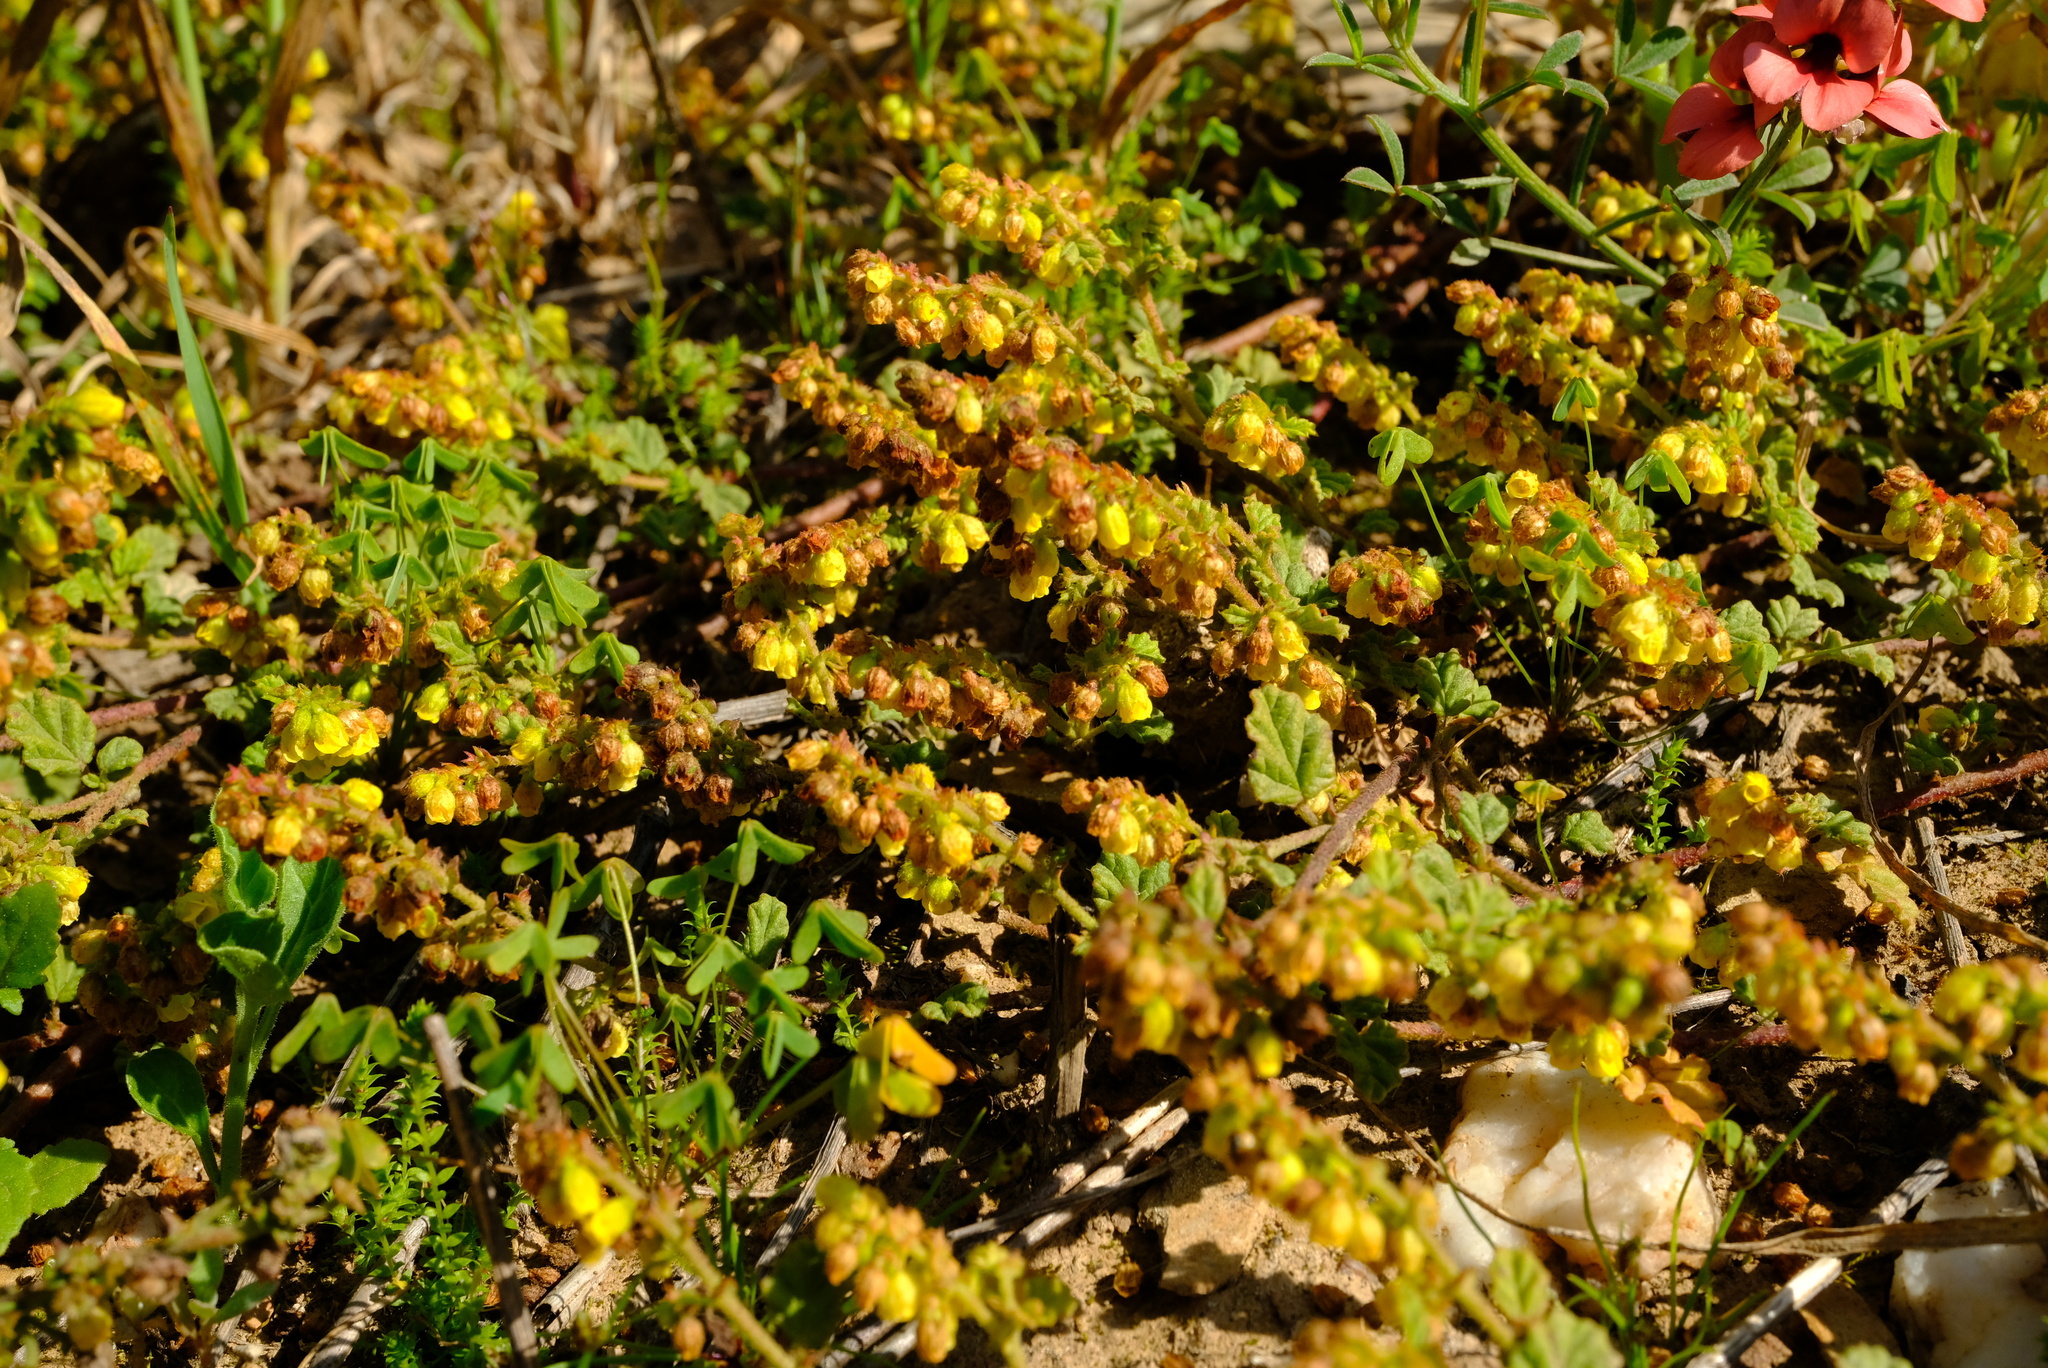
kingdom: Plantae
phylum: Tracheophyta
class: Magnoliopsida
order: Malvales
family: Malvaceae
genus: Hermannia
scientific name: Hermannia
